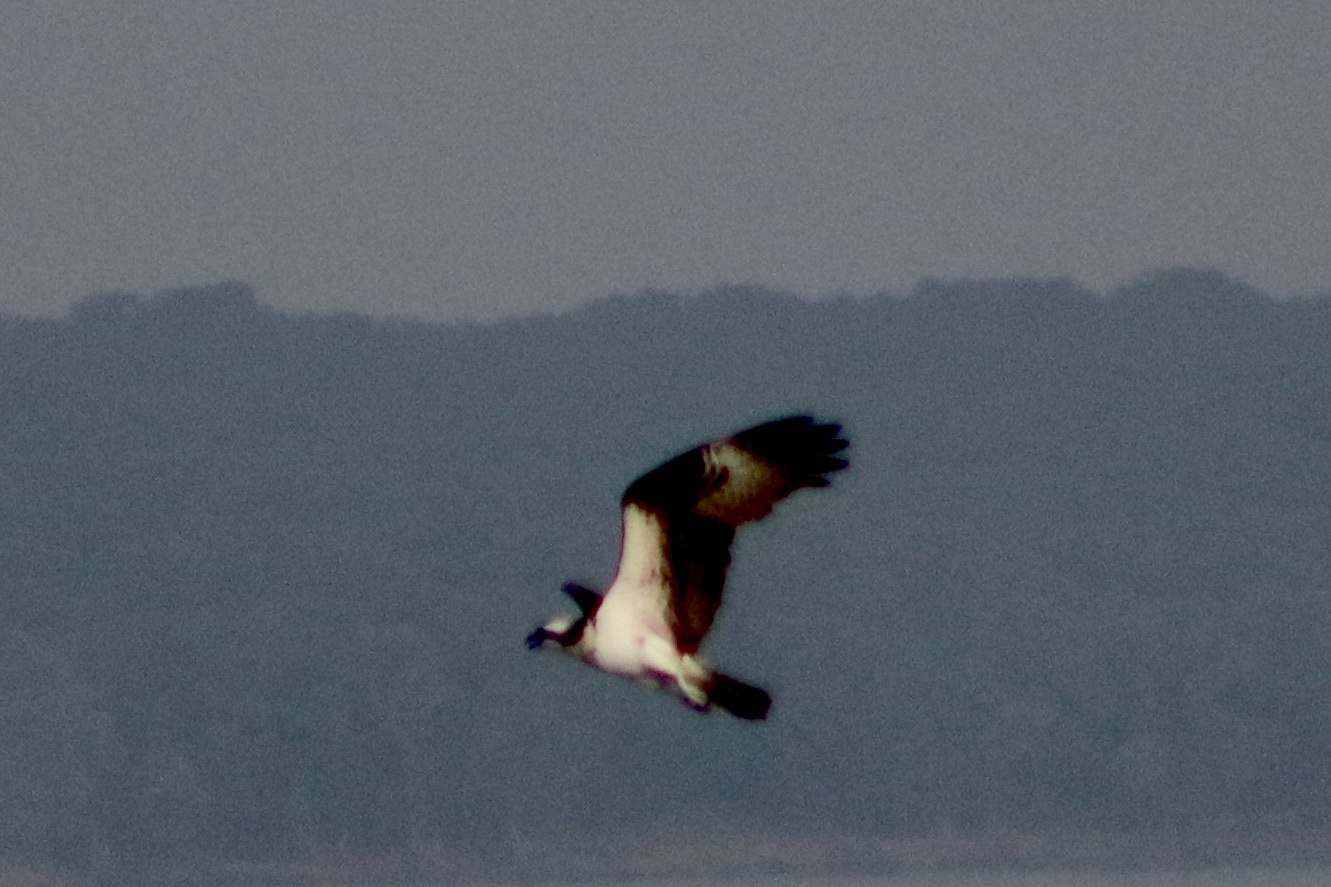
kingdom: Animalia
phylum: Chordata
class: Aves
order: Accipitriformes
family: Pandionidae
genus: Pandion
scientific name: Pandion haliaetus
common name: Osprey
